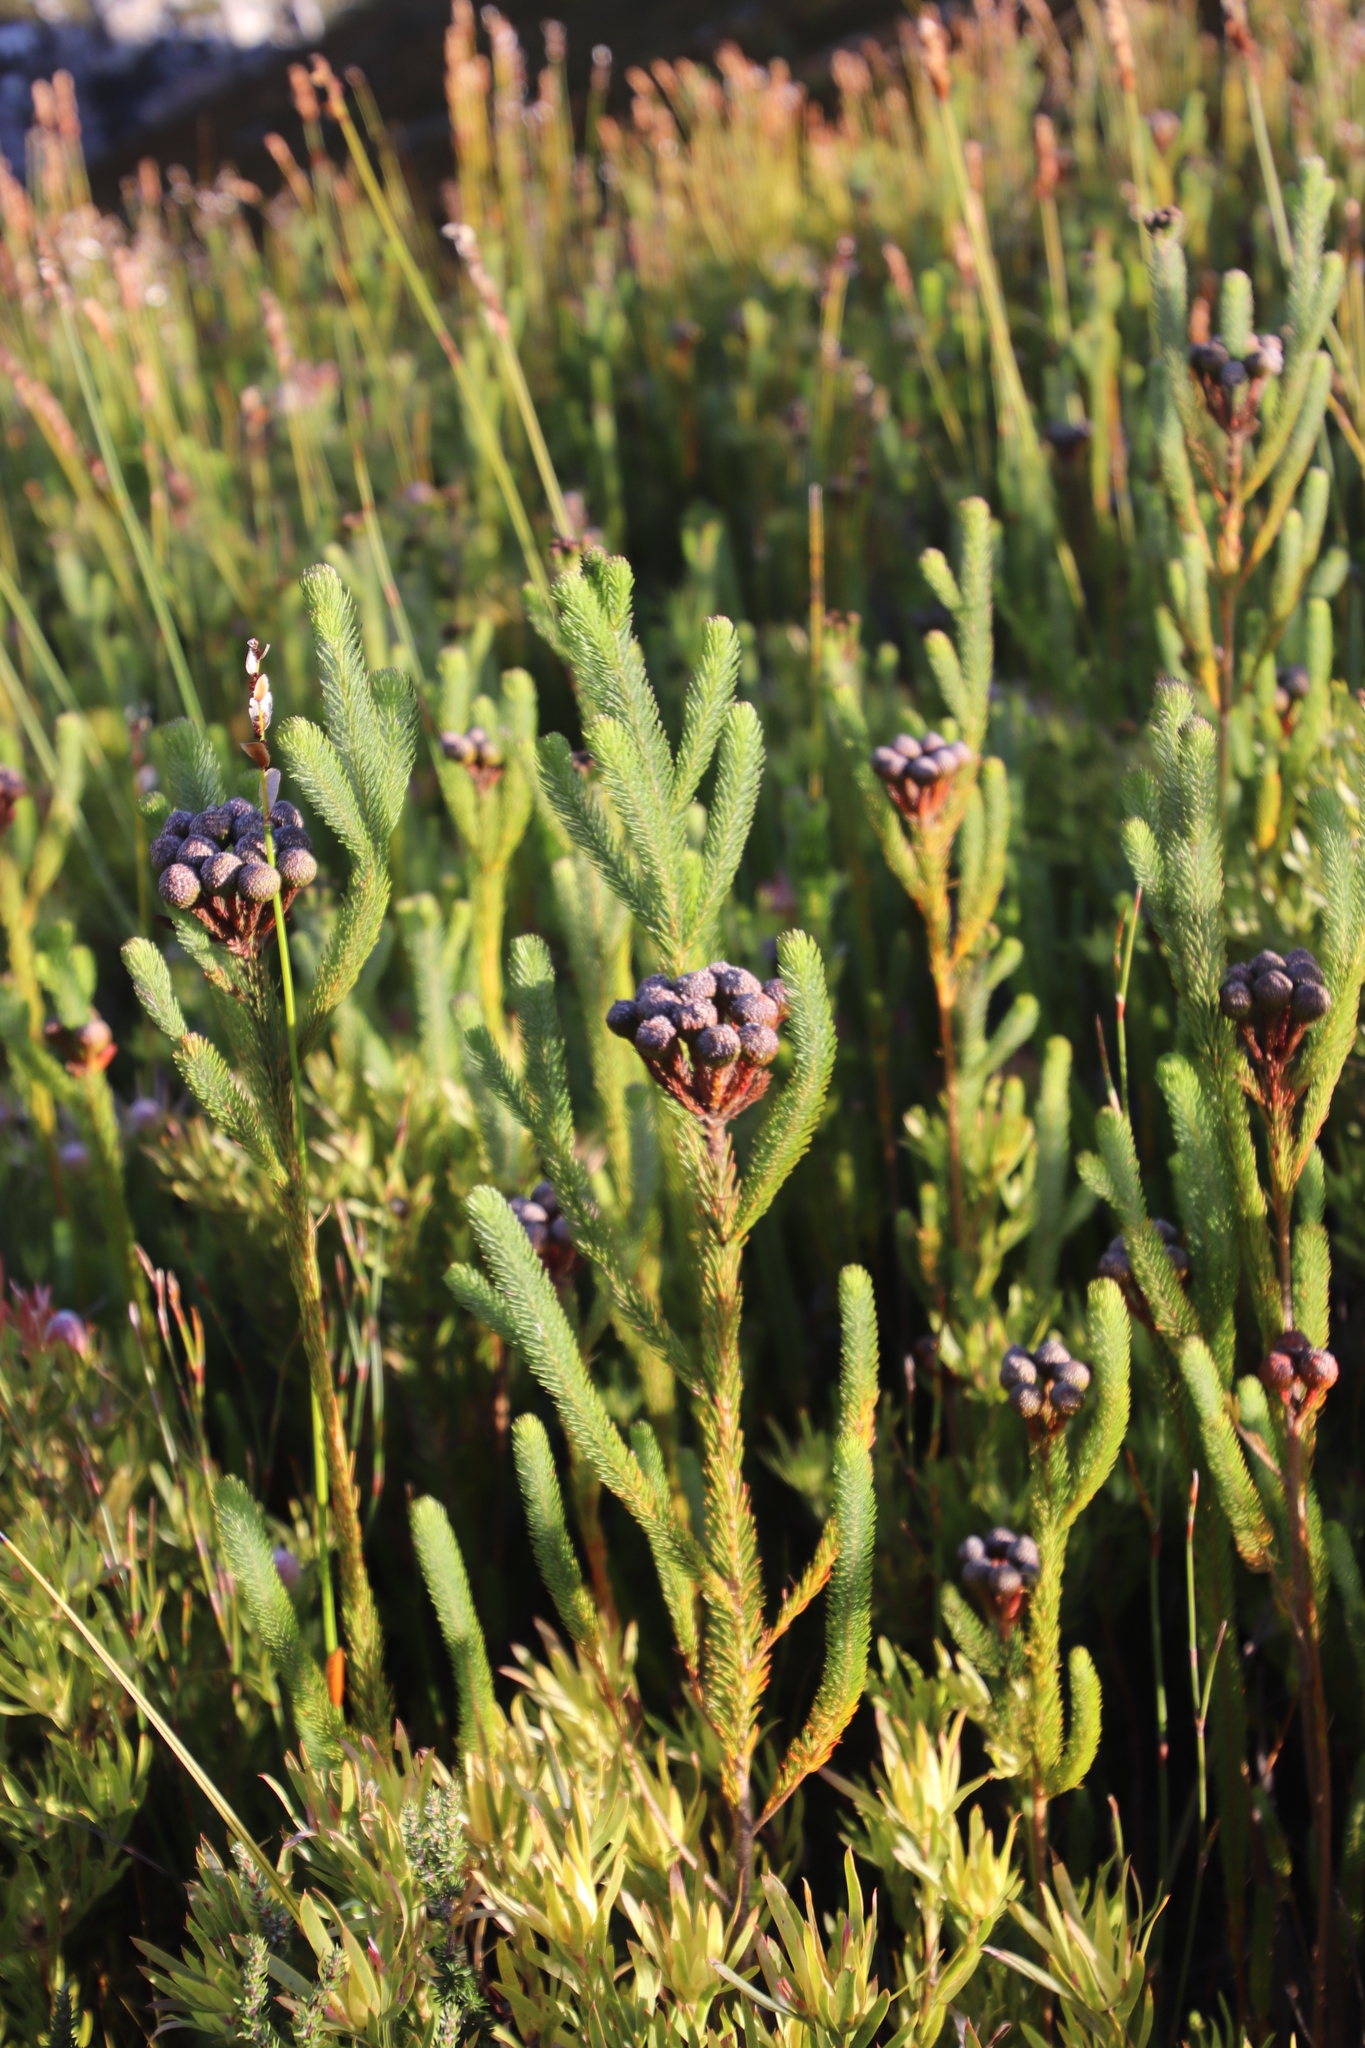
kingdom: Plantae
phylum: Tracheophyta
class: Magnoliopsida
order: Bruniales
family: Bruniaceae
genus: Berzelia
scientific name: Berzelia albiflora
